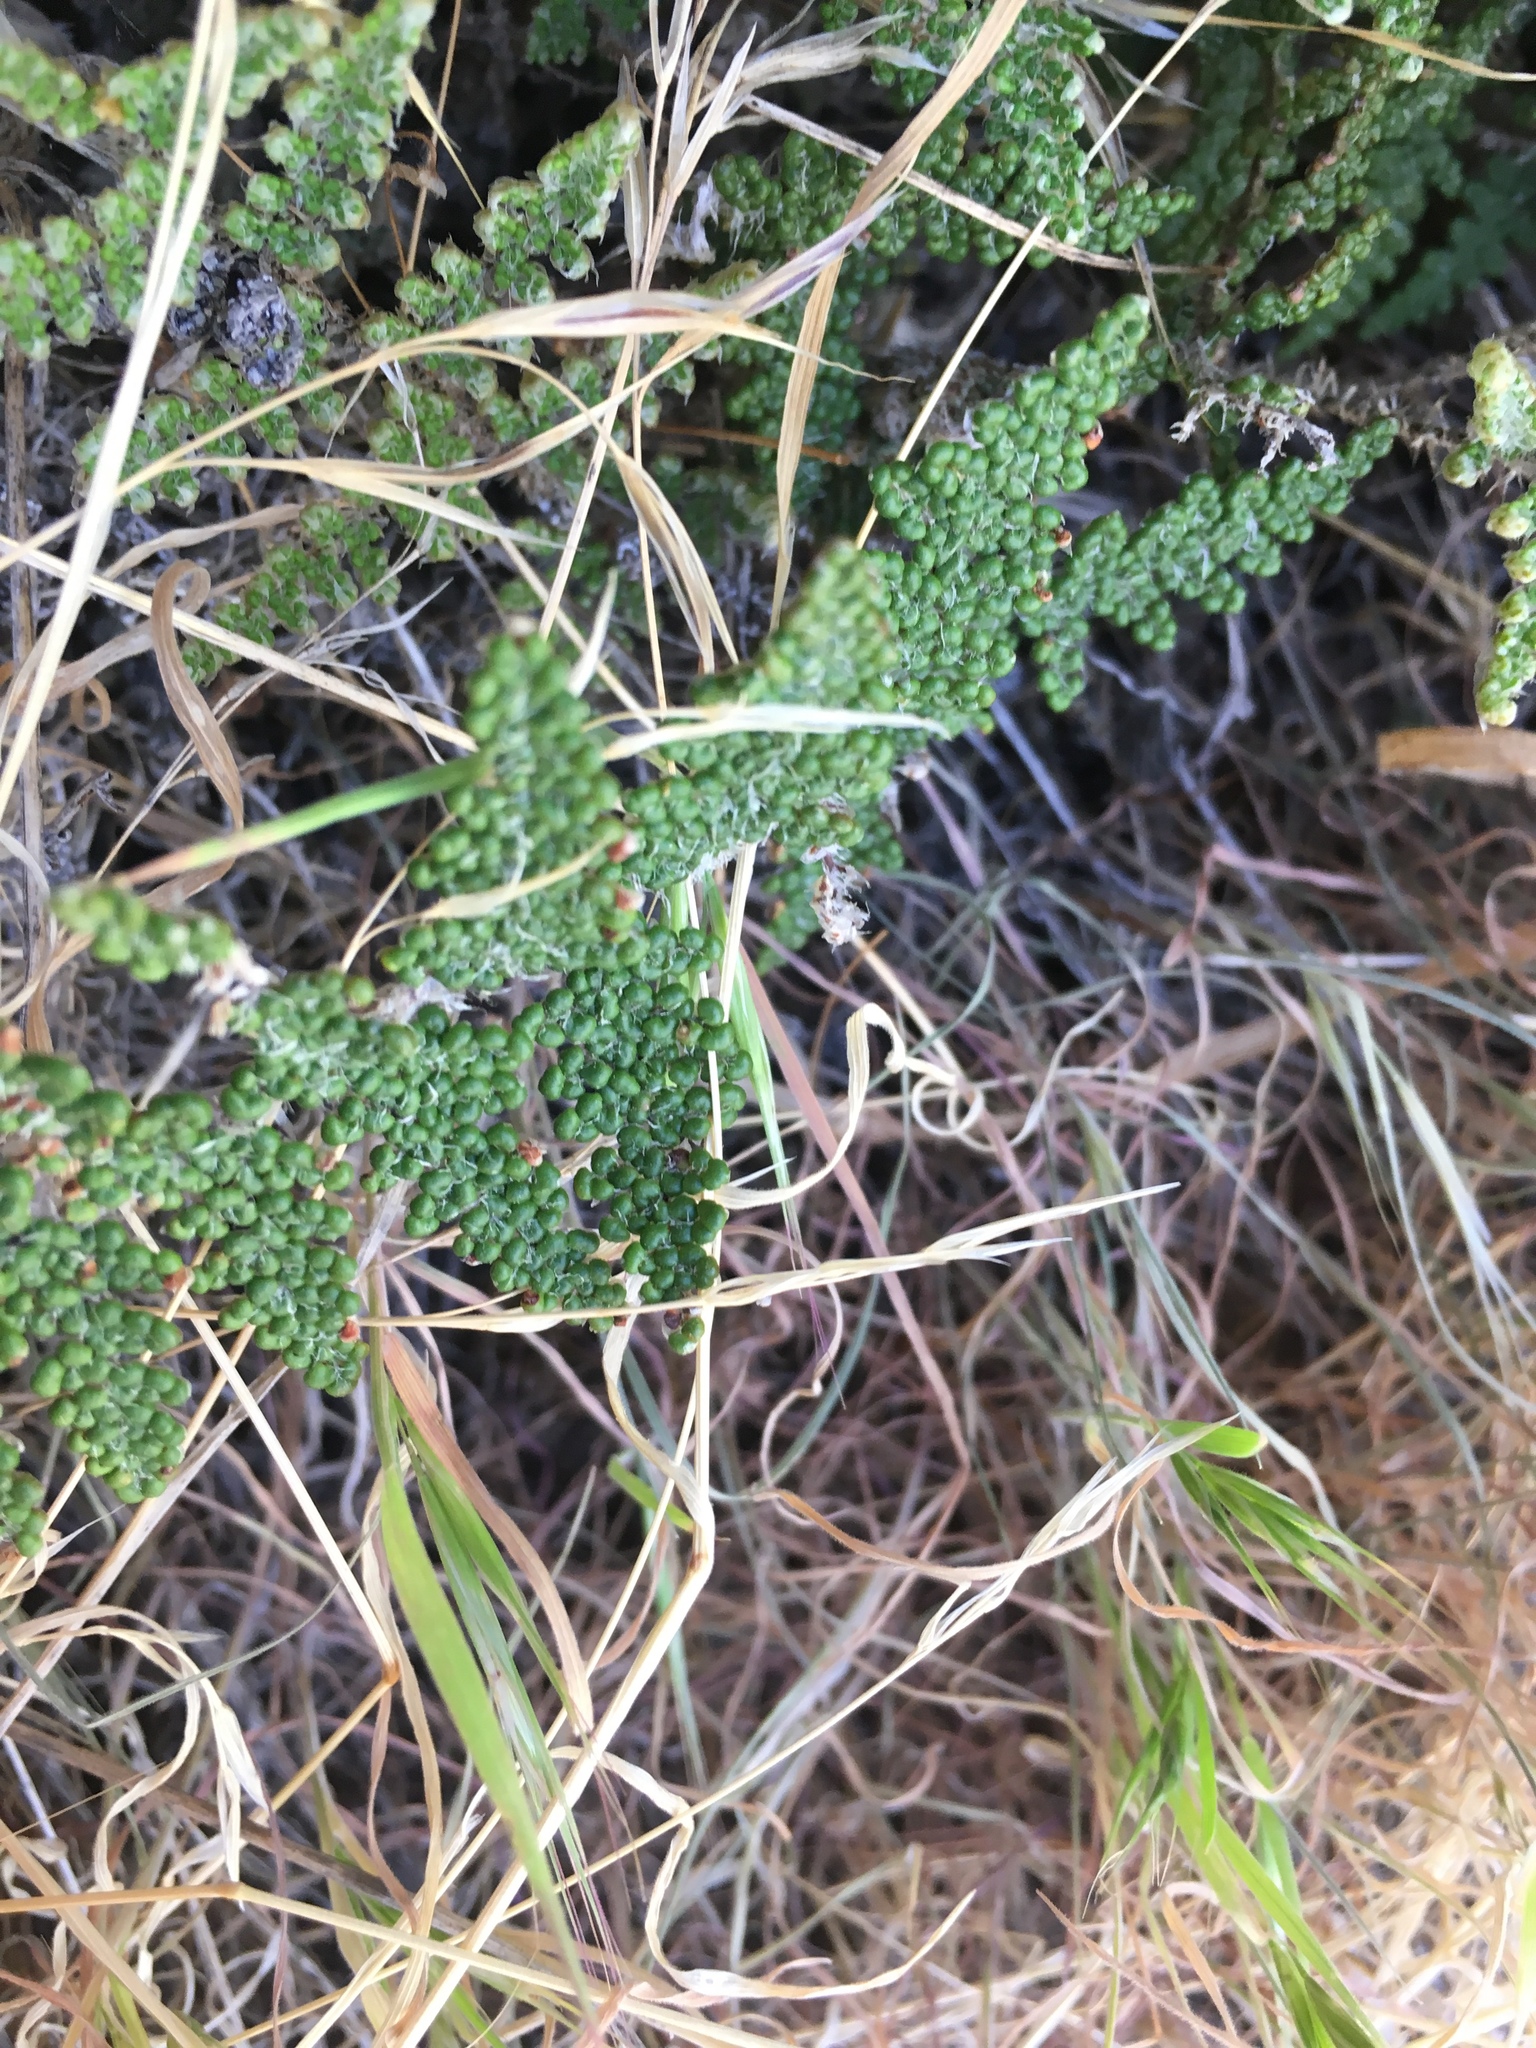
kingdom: Plantae
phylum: Tracheophyta
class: Polypodiopsida
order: Polypodiales
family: Pteridaceae
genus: Myriopteris
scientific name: Myriopteris covillei
